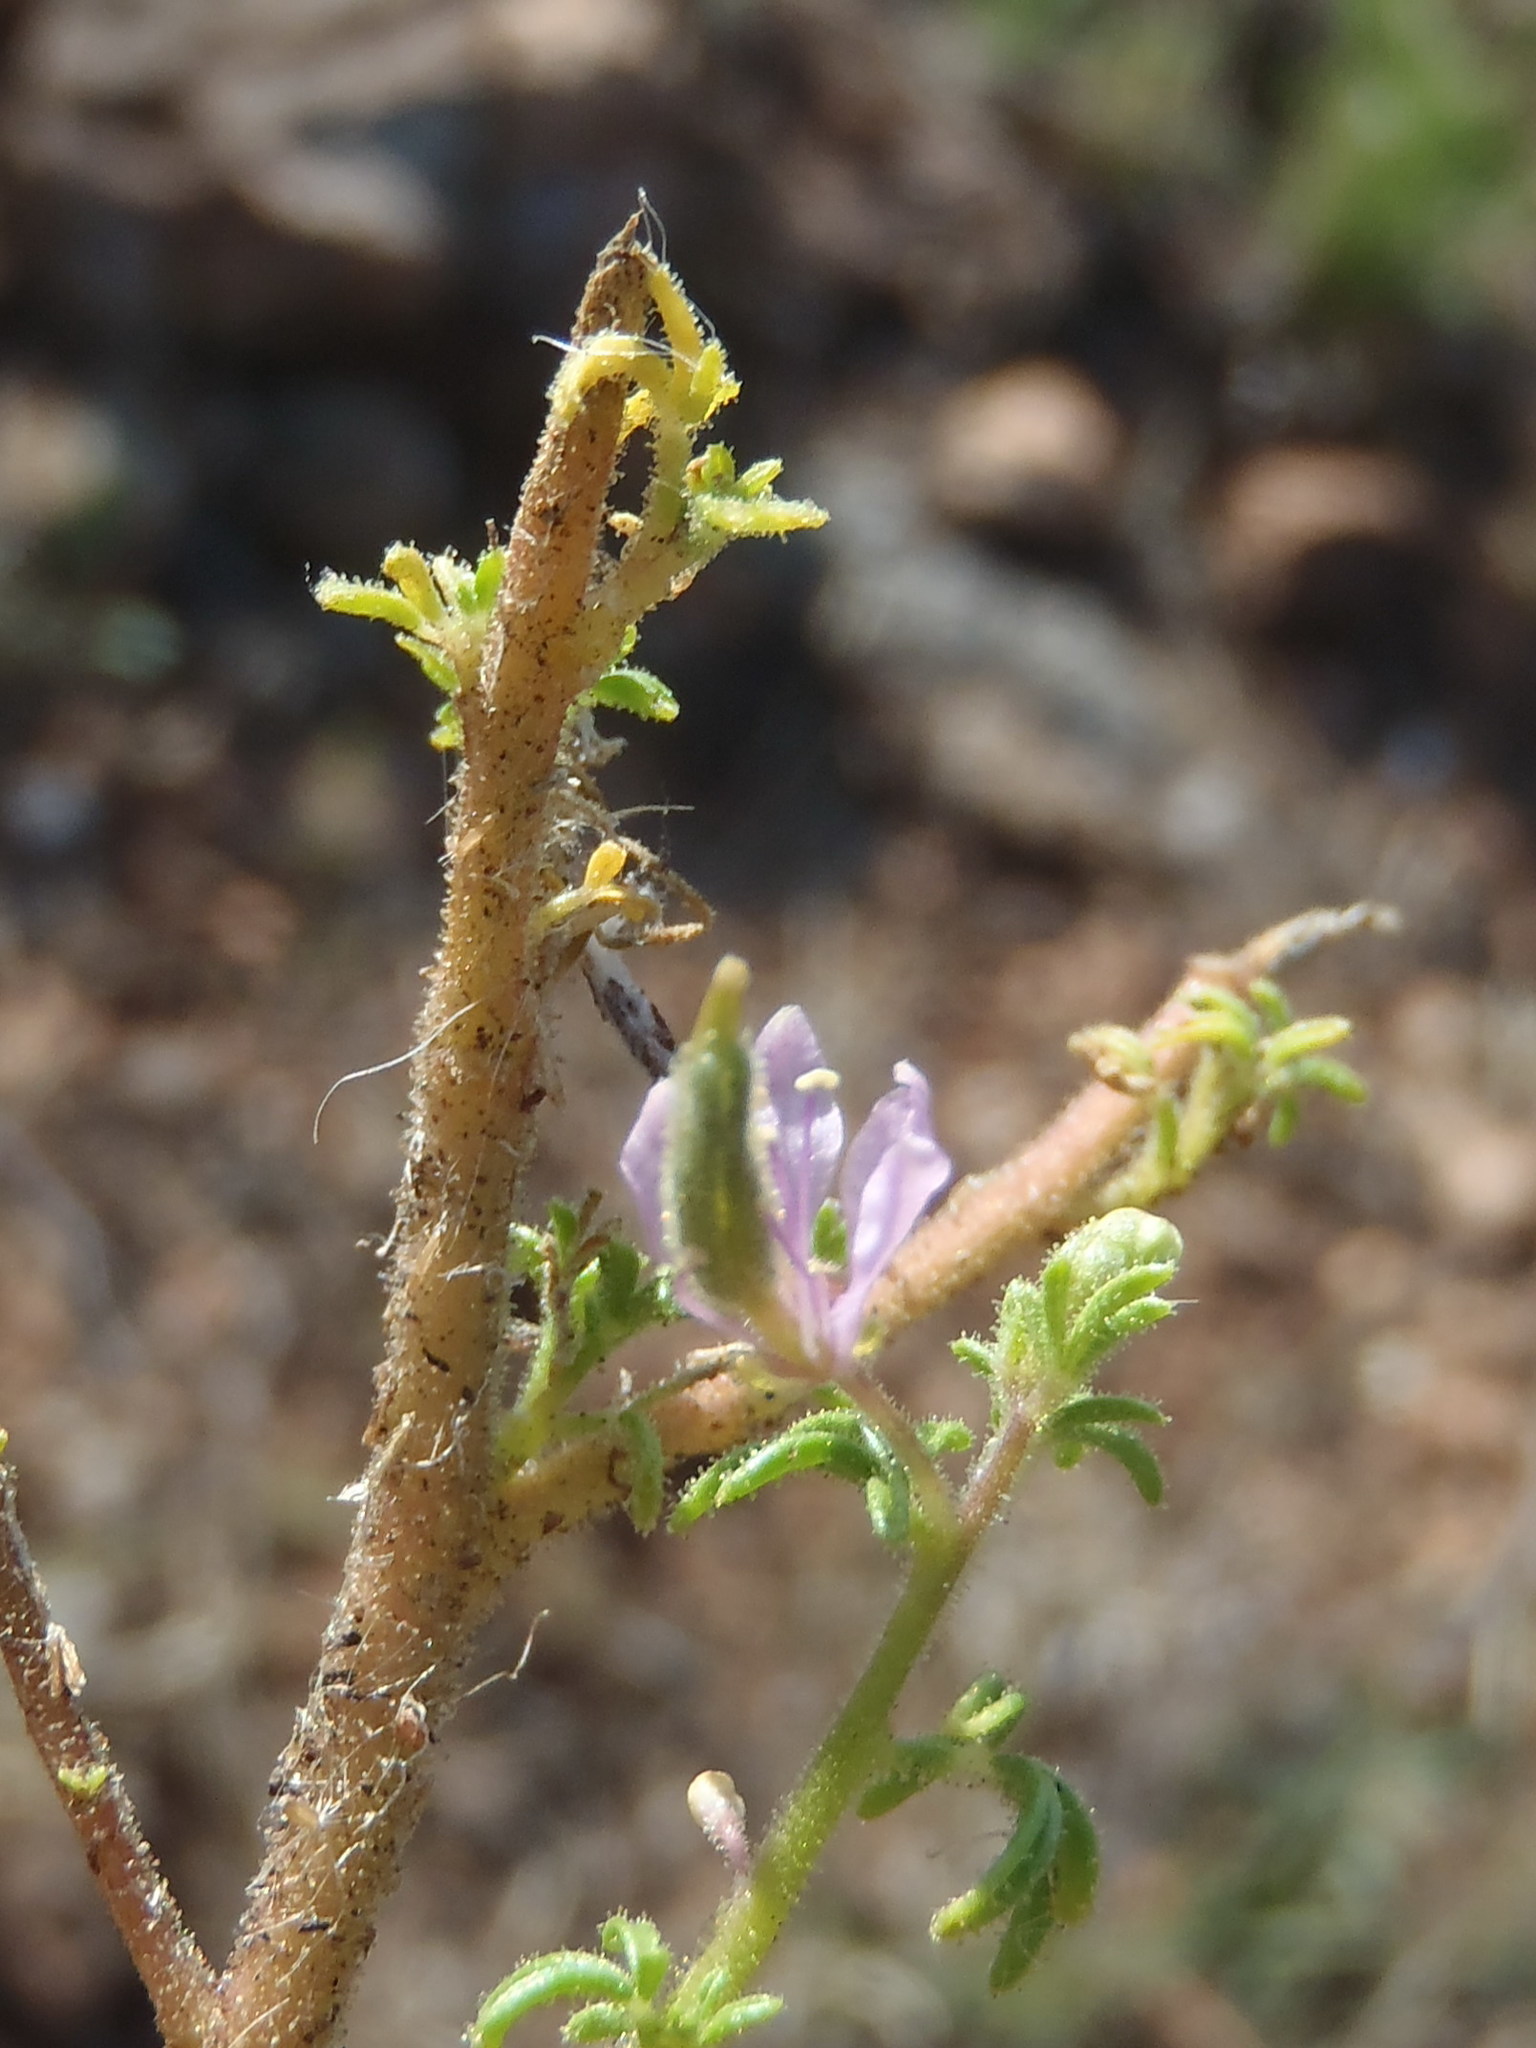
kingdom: Plantae
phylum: Tracheophyta
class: Magnoliopsida
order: Brassicales
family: Cleomaceae
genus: Sieruela
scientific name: Sieruela rubella
